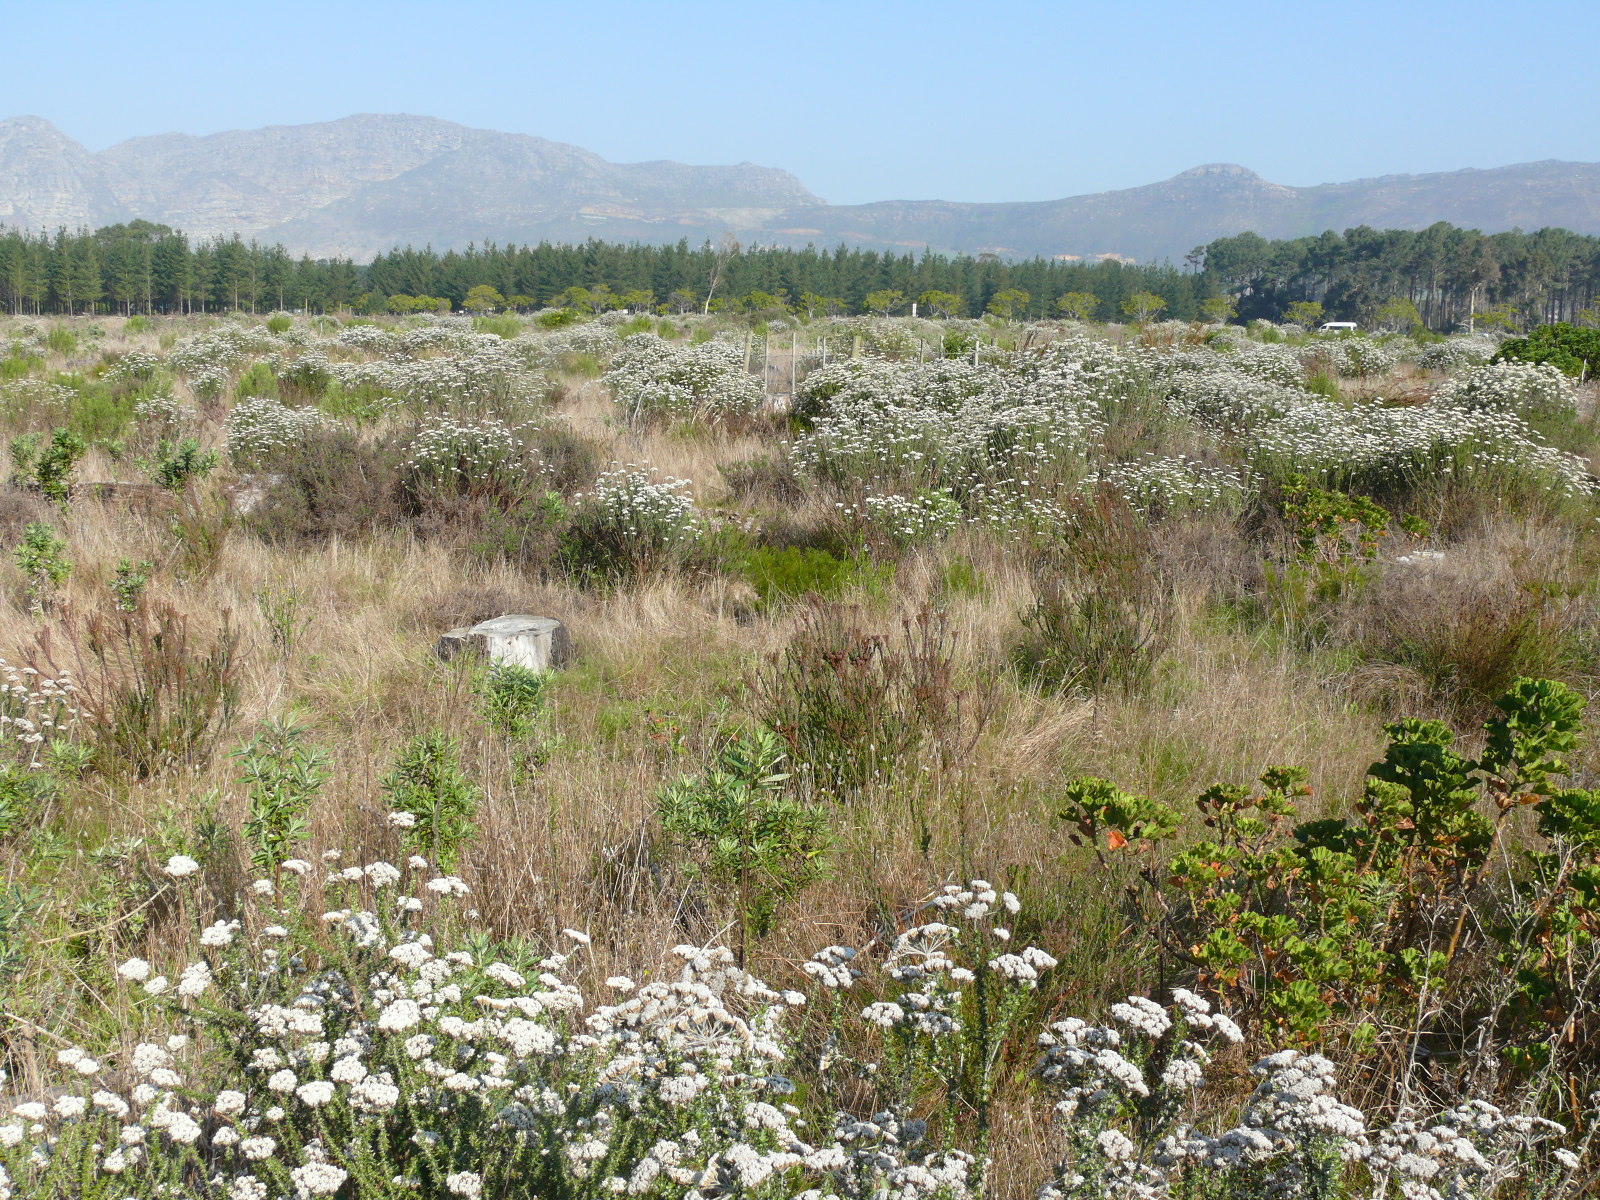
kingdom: Plantae
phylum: Tracheophyta
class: Magnoliopsida
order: Asterales
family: Asteraceae
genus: Metalasia
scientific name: Metalasia densa
